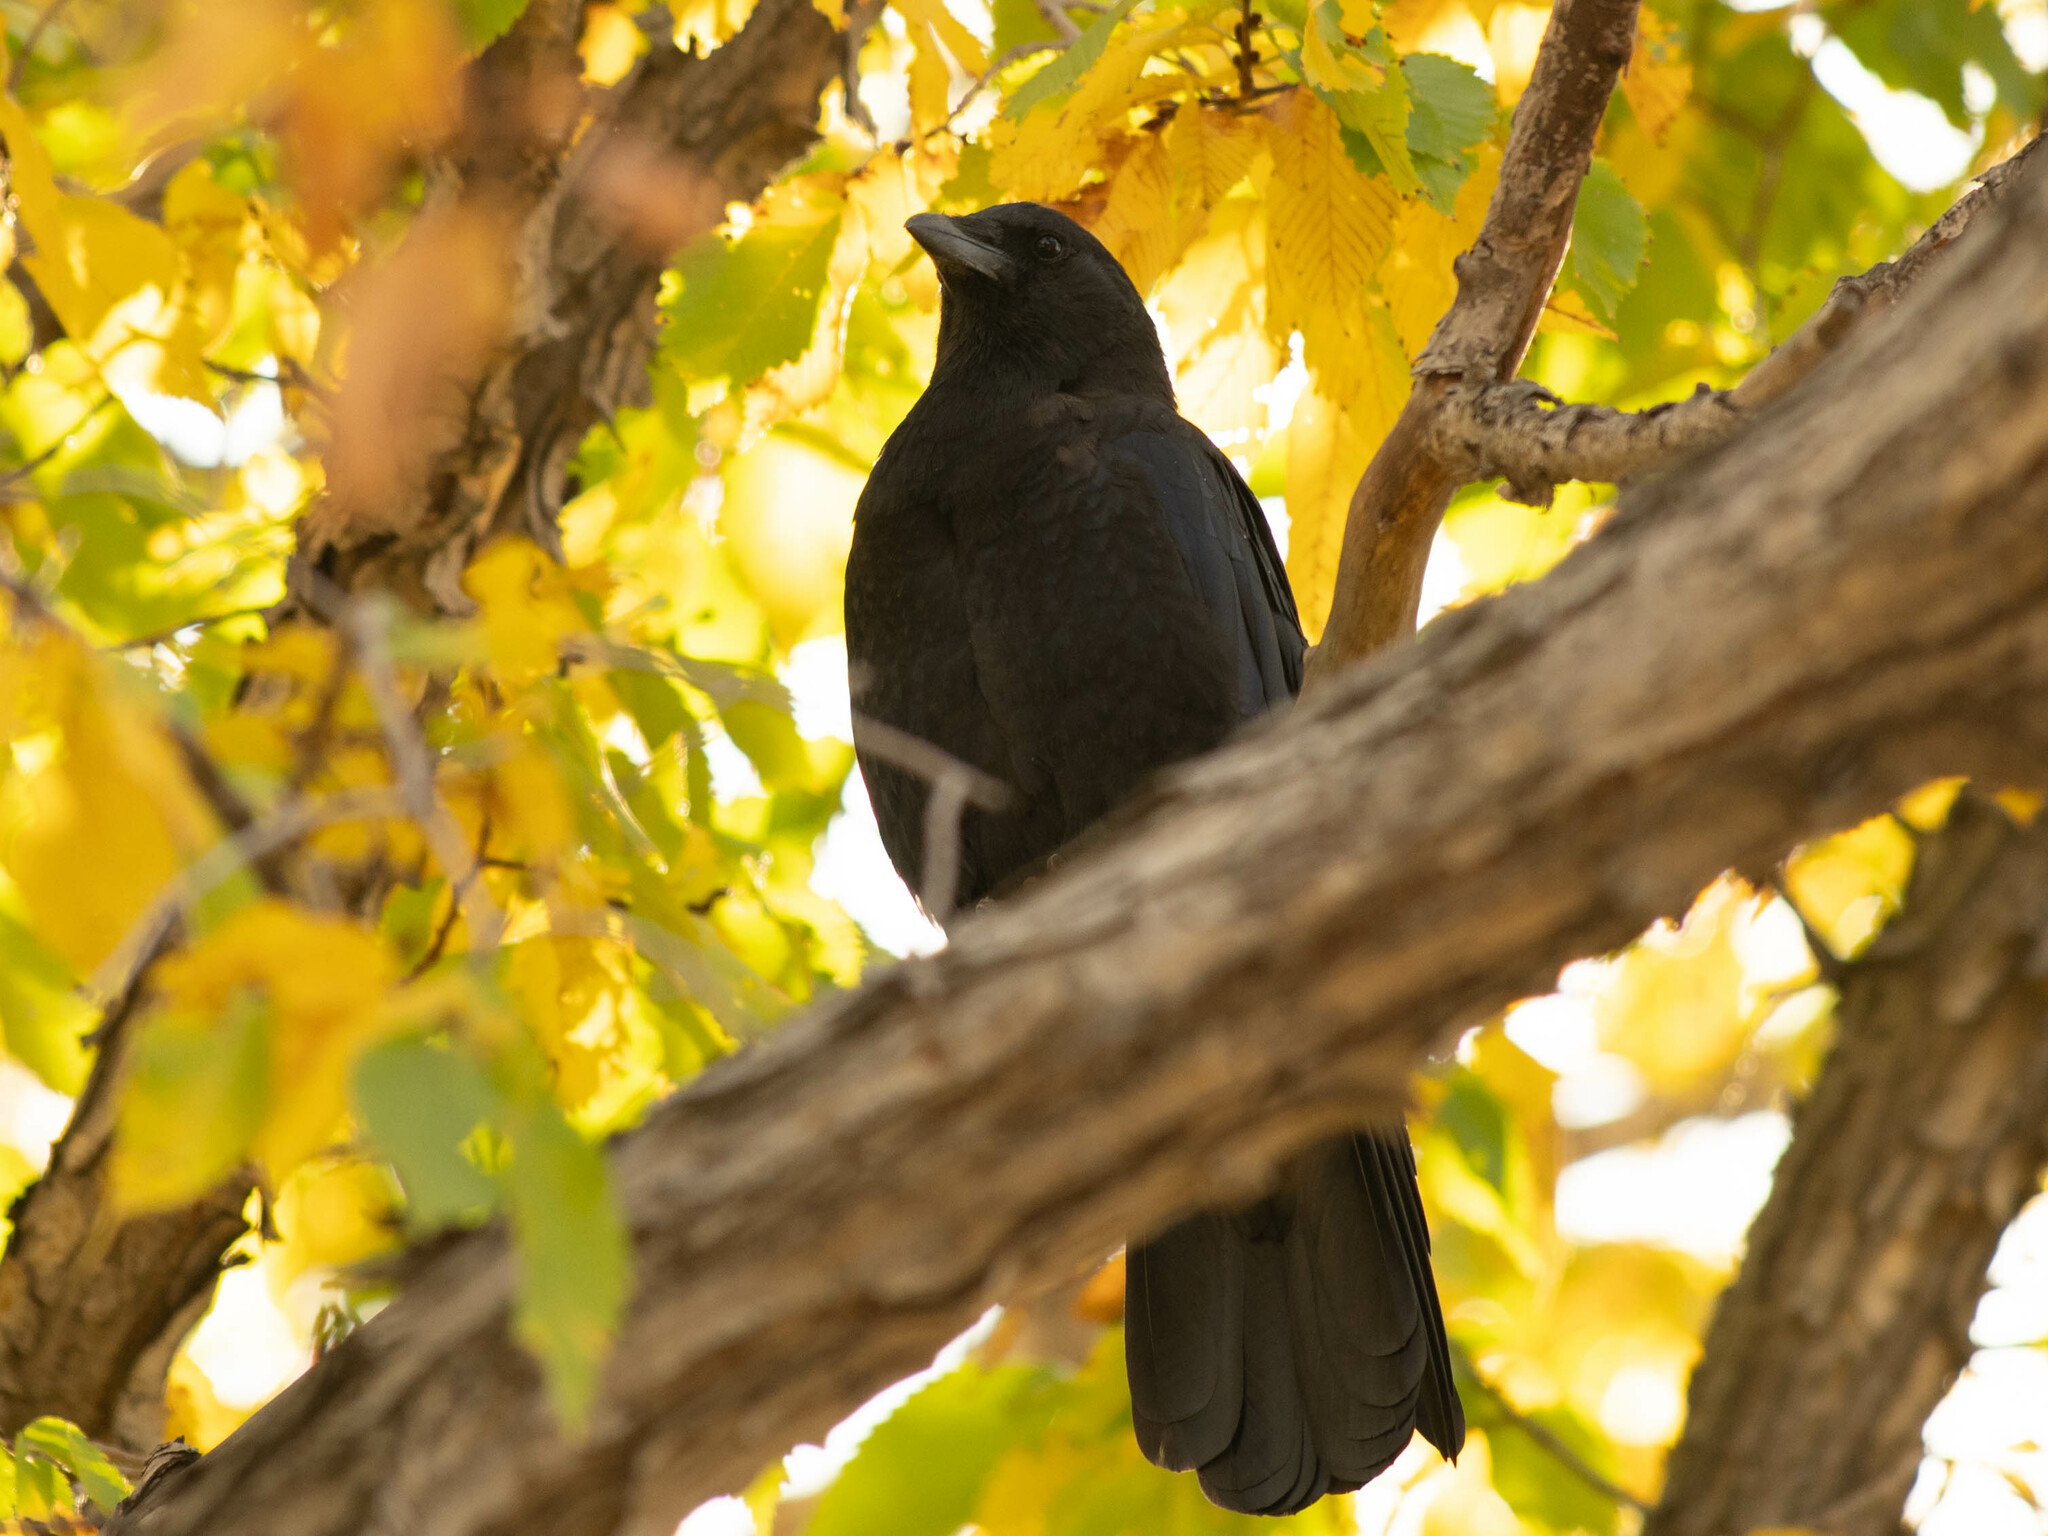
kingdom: Animalia
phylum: Chordata
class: Aves
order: Passeriformes
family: Corvidae
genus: Corvus
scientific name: Corvus brachyrhynchos
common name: American crow
